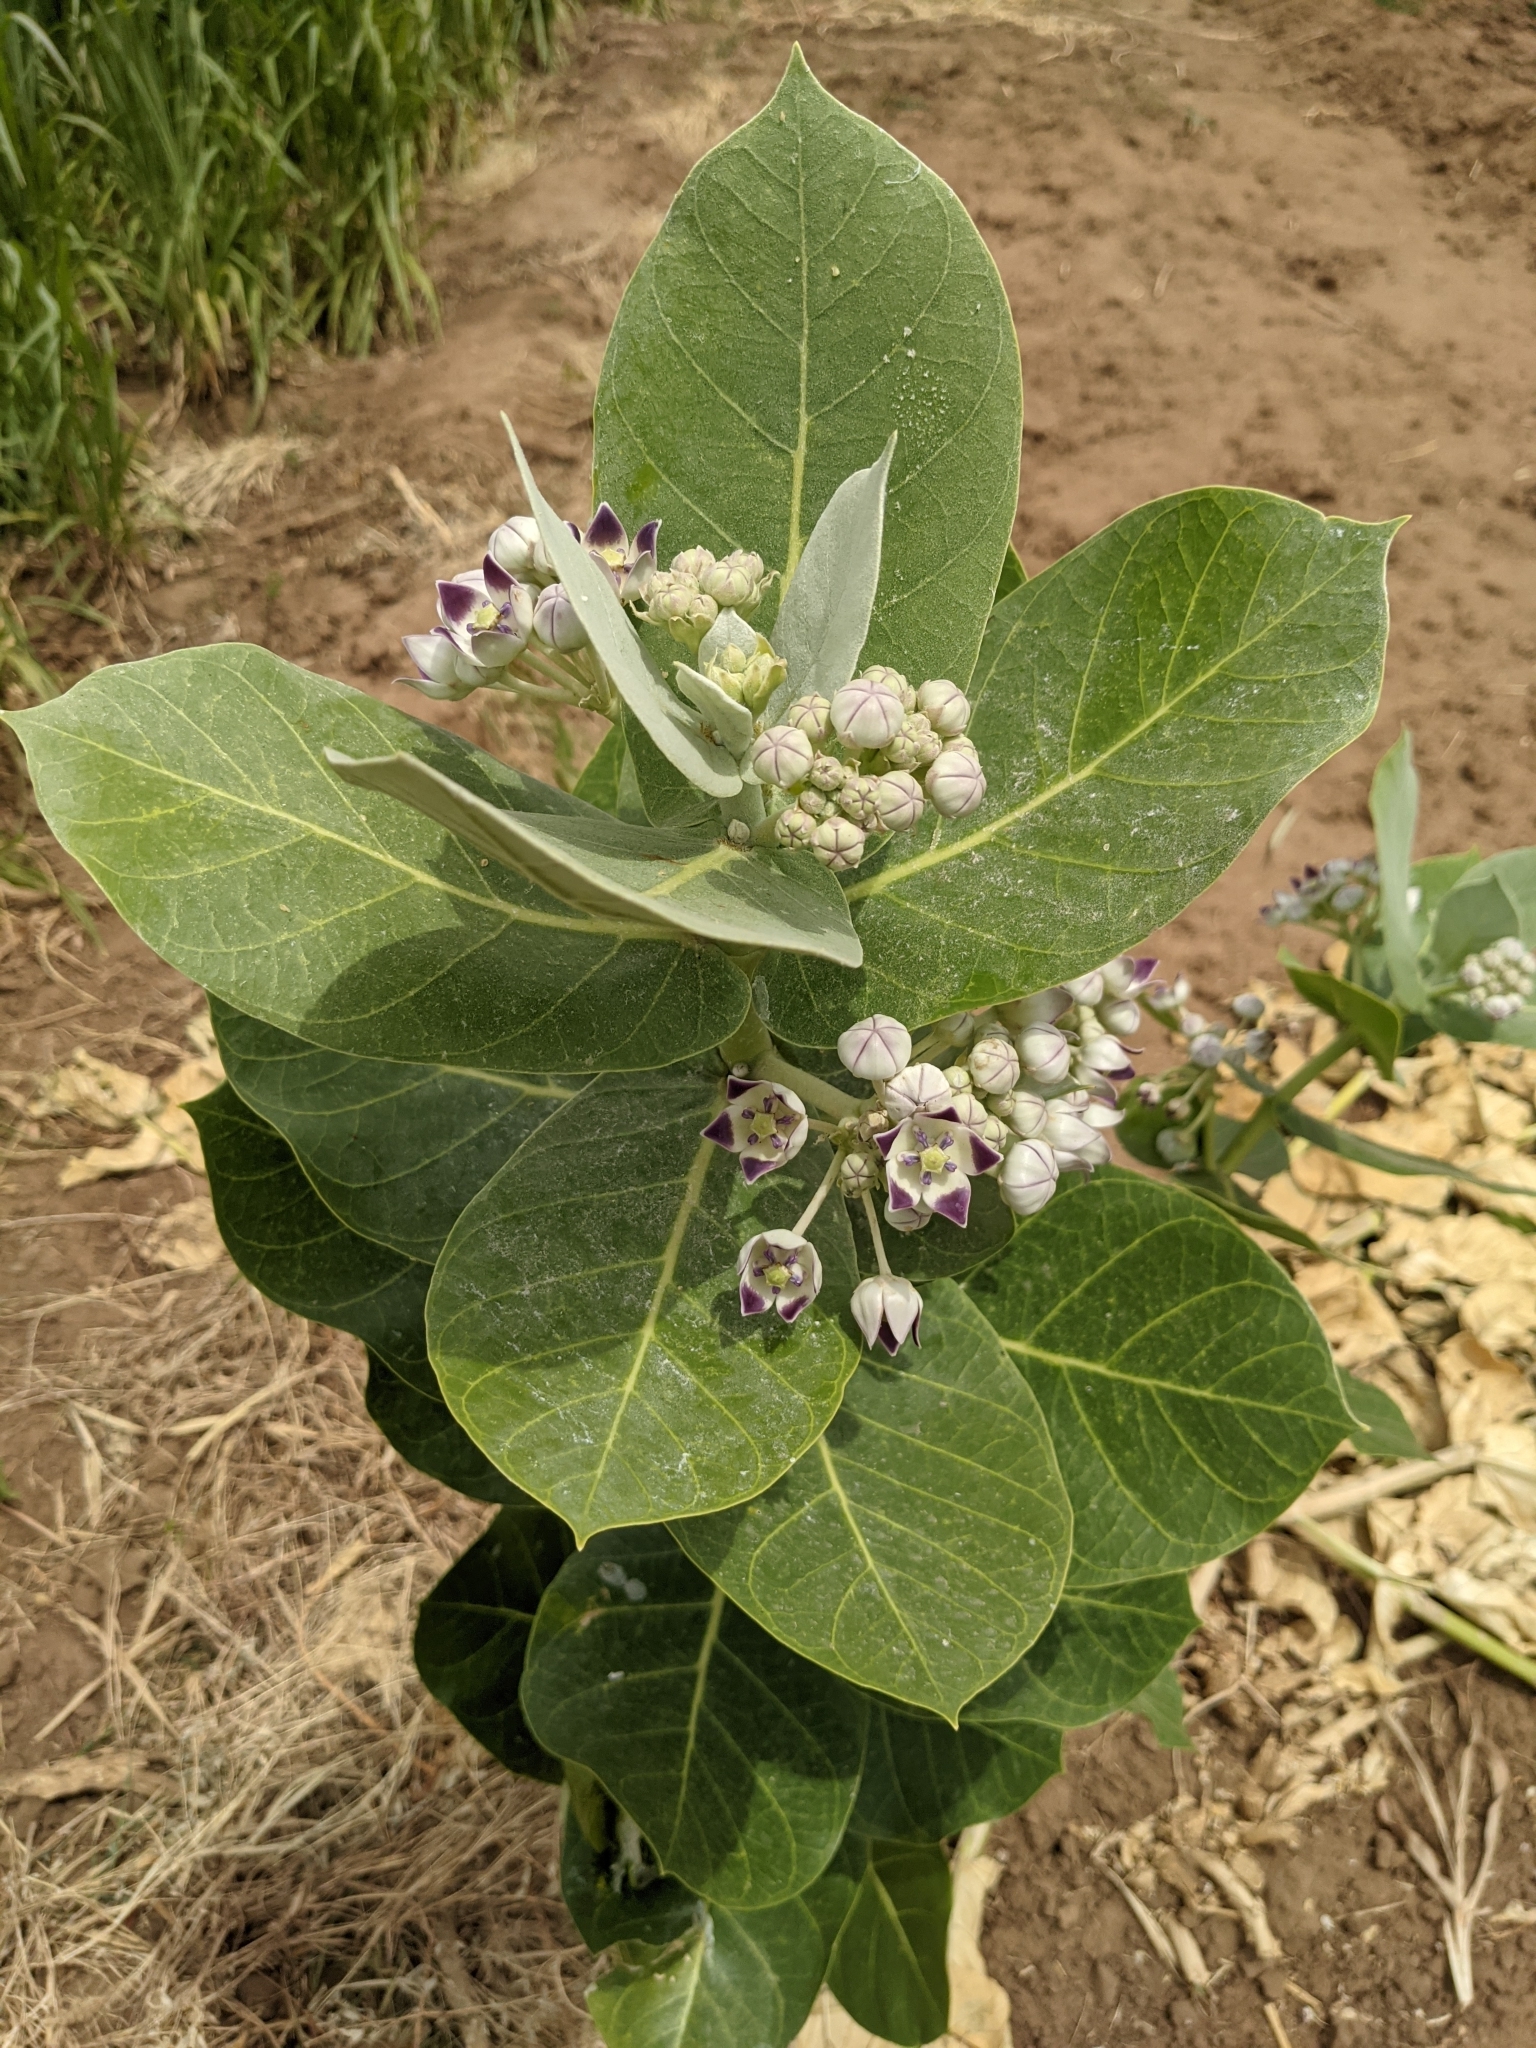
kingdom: Plantae
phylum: Tracheophyta
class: Magnoliopsida
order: Gentianales
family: Apocynaceae
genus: Calotropis
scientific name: Calotropis procera
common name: Roostertree
